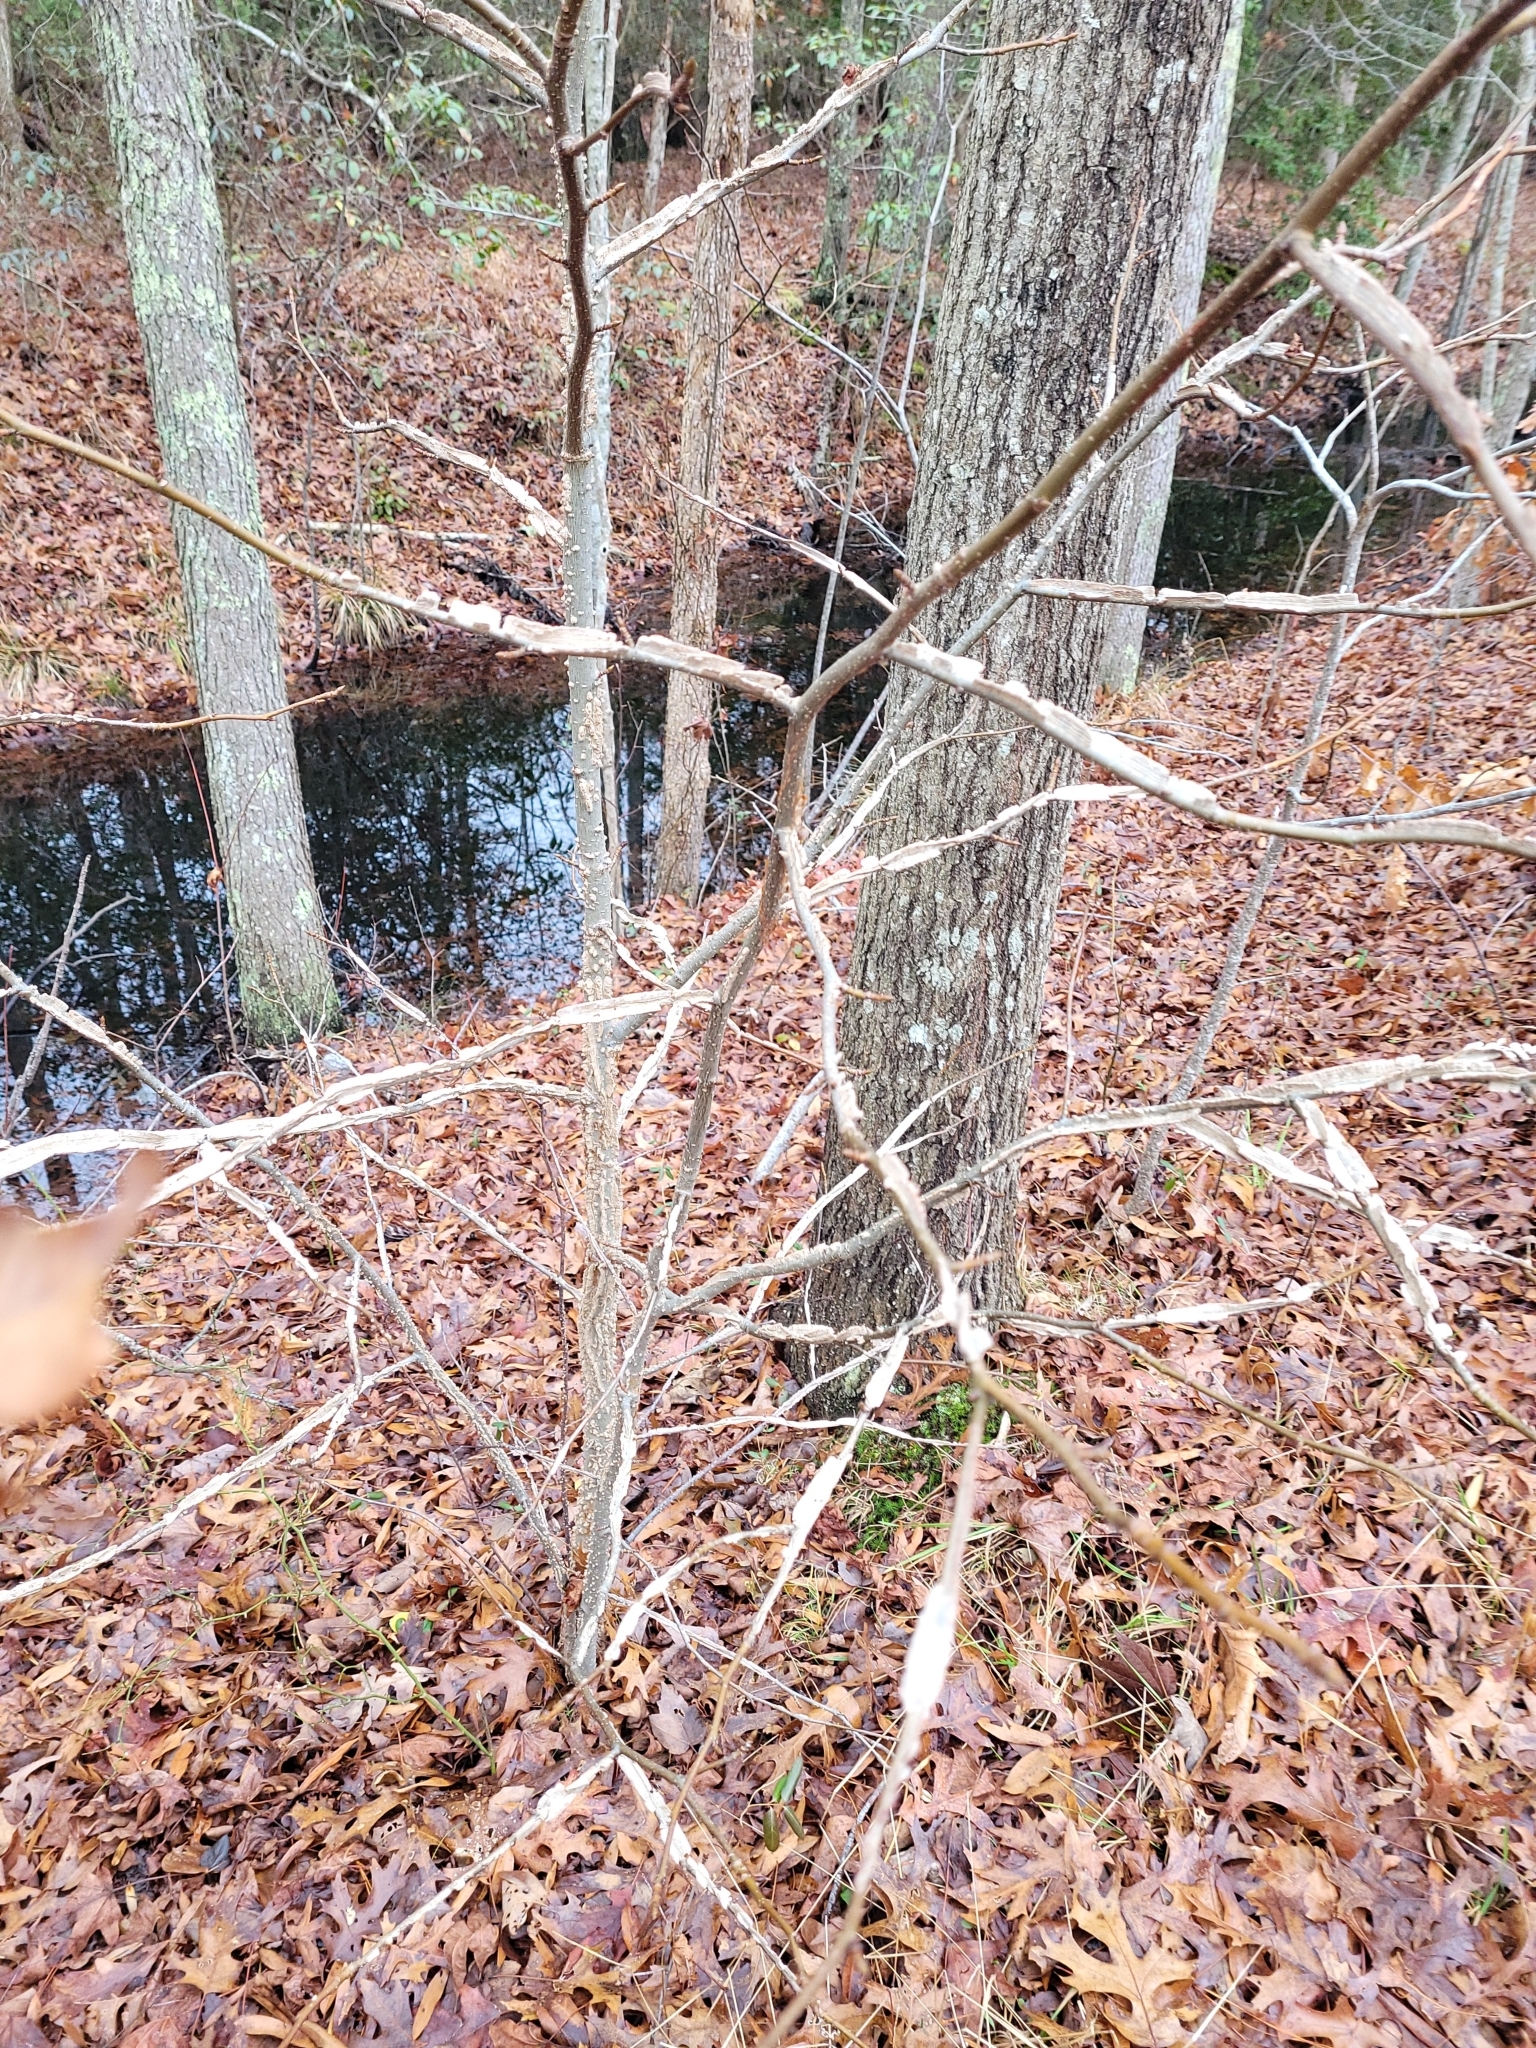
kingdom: Plantae
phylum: Tracheophyta
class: Magnoliopsida
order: Saxifragales
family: Altingiaceae
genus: Liquidambar
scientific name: Liquidambar styraciflua
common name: Sweet gum
